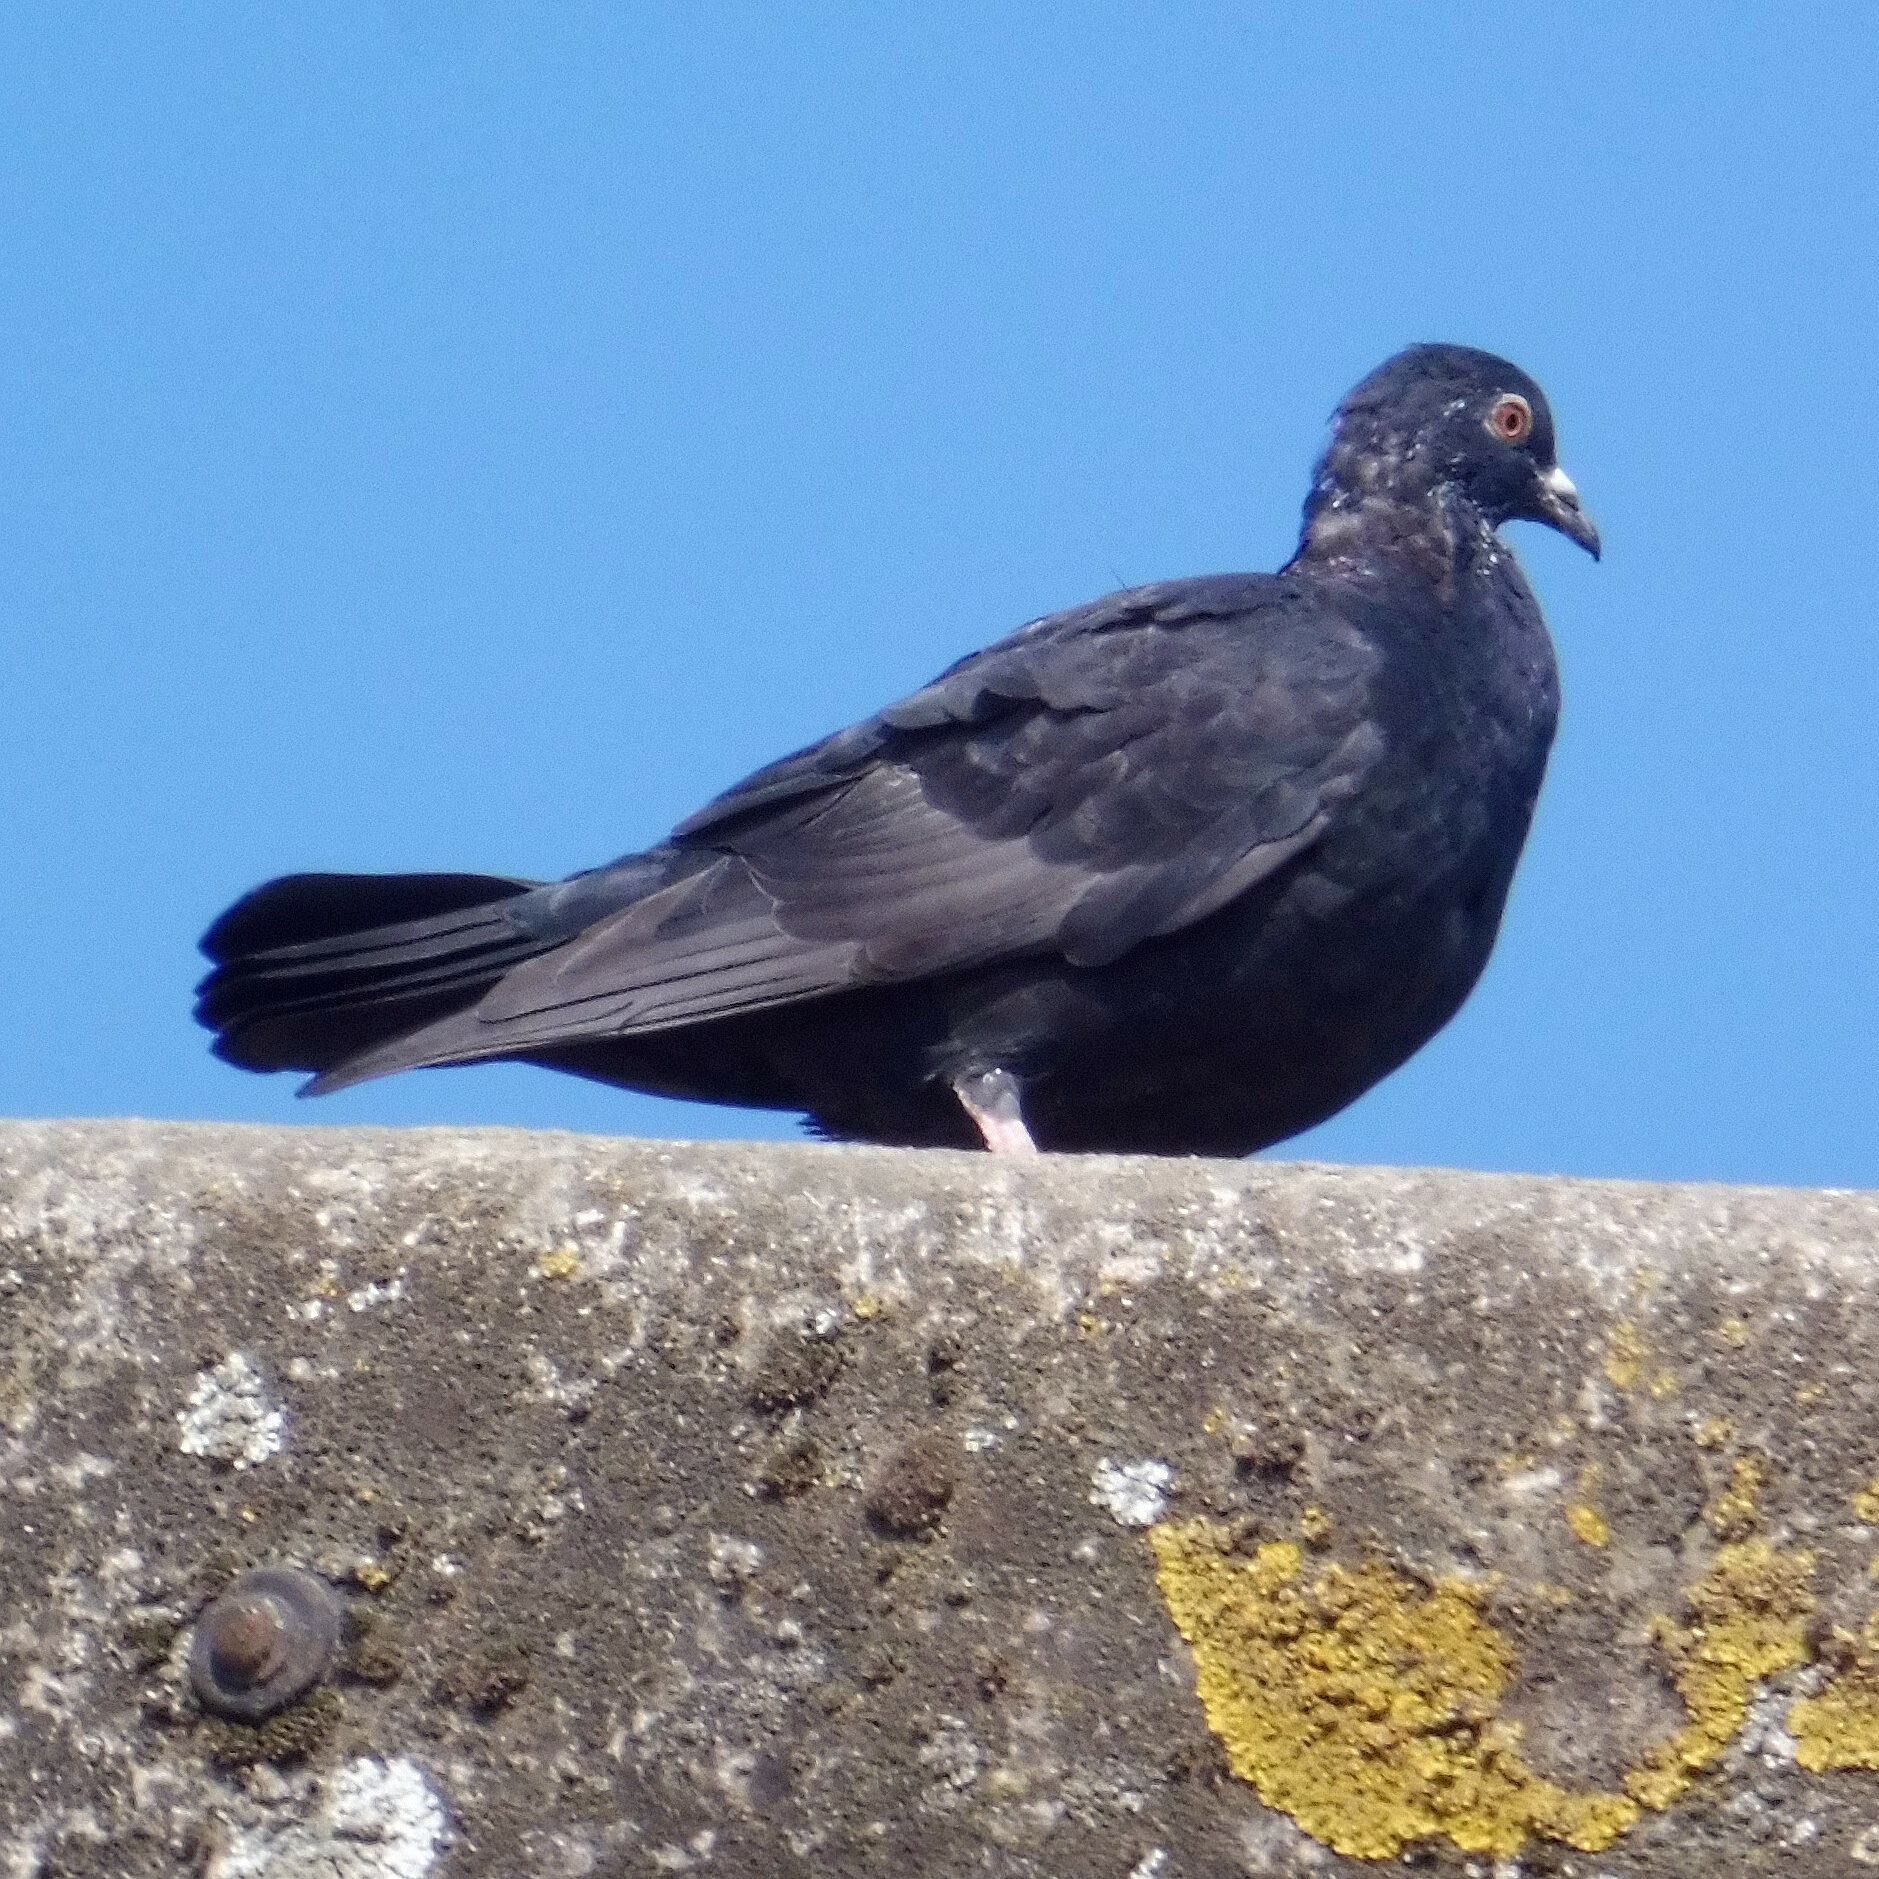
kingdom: Animalia
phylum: Chordata
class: Aves
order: Columbiformes
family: Columbidae
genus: Columba
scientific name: Columba livia
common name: Rock pigeon
